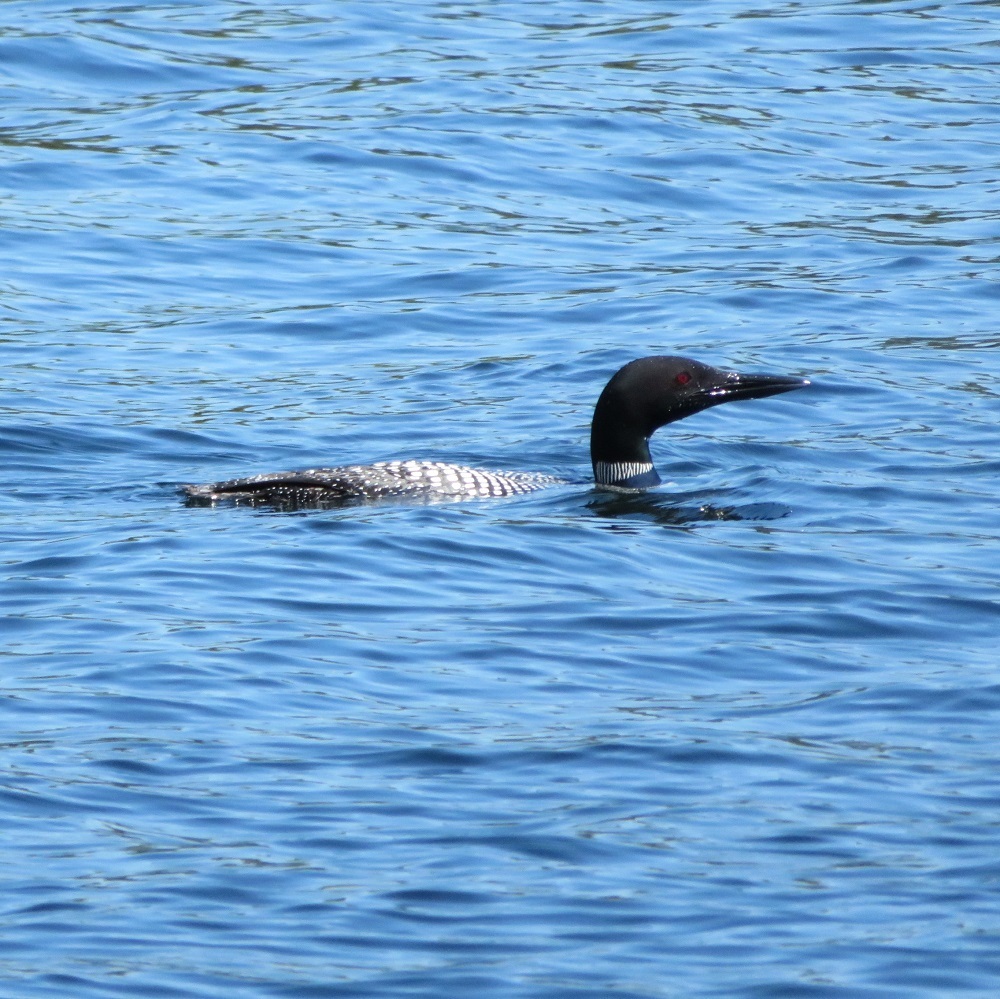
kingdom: Animalia
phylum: Chordata
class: Aves
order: Gaviiformes
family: Gaviidae
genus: Gavia
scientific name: Gavia immer
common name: Common loon
